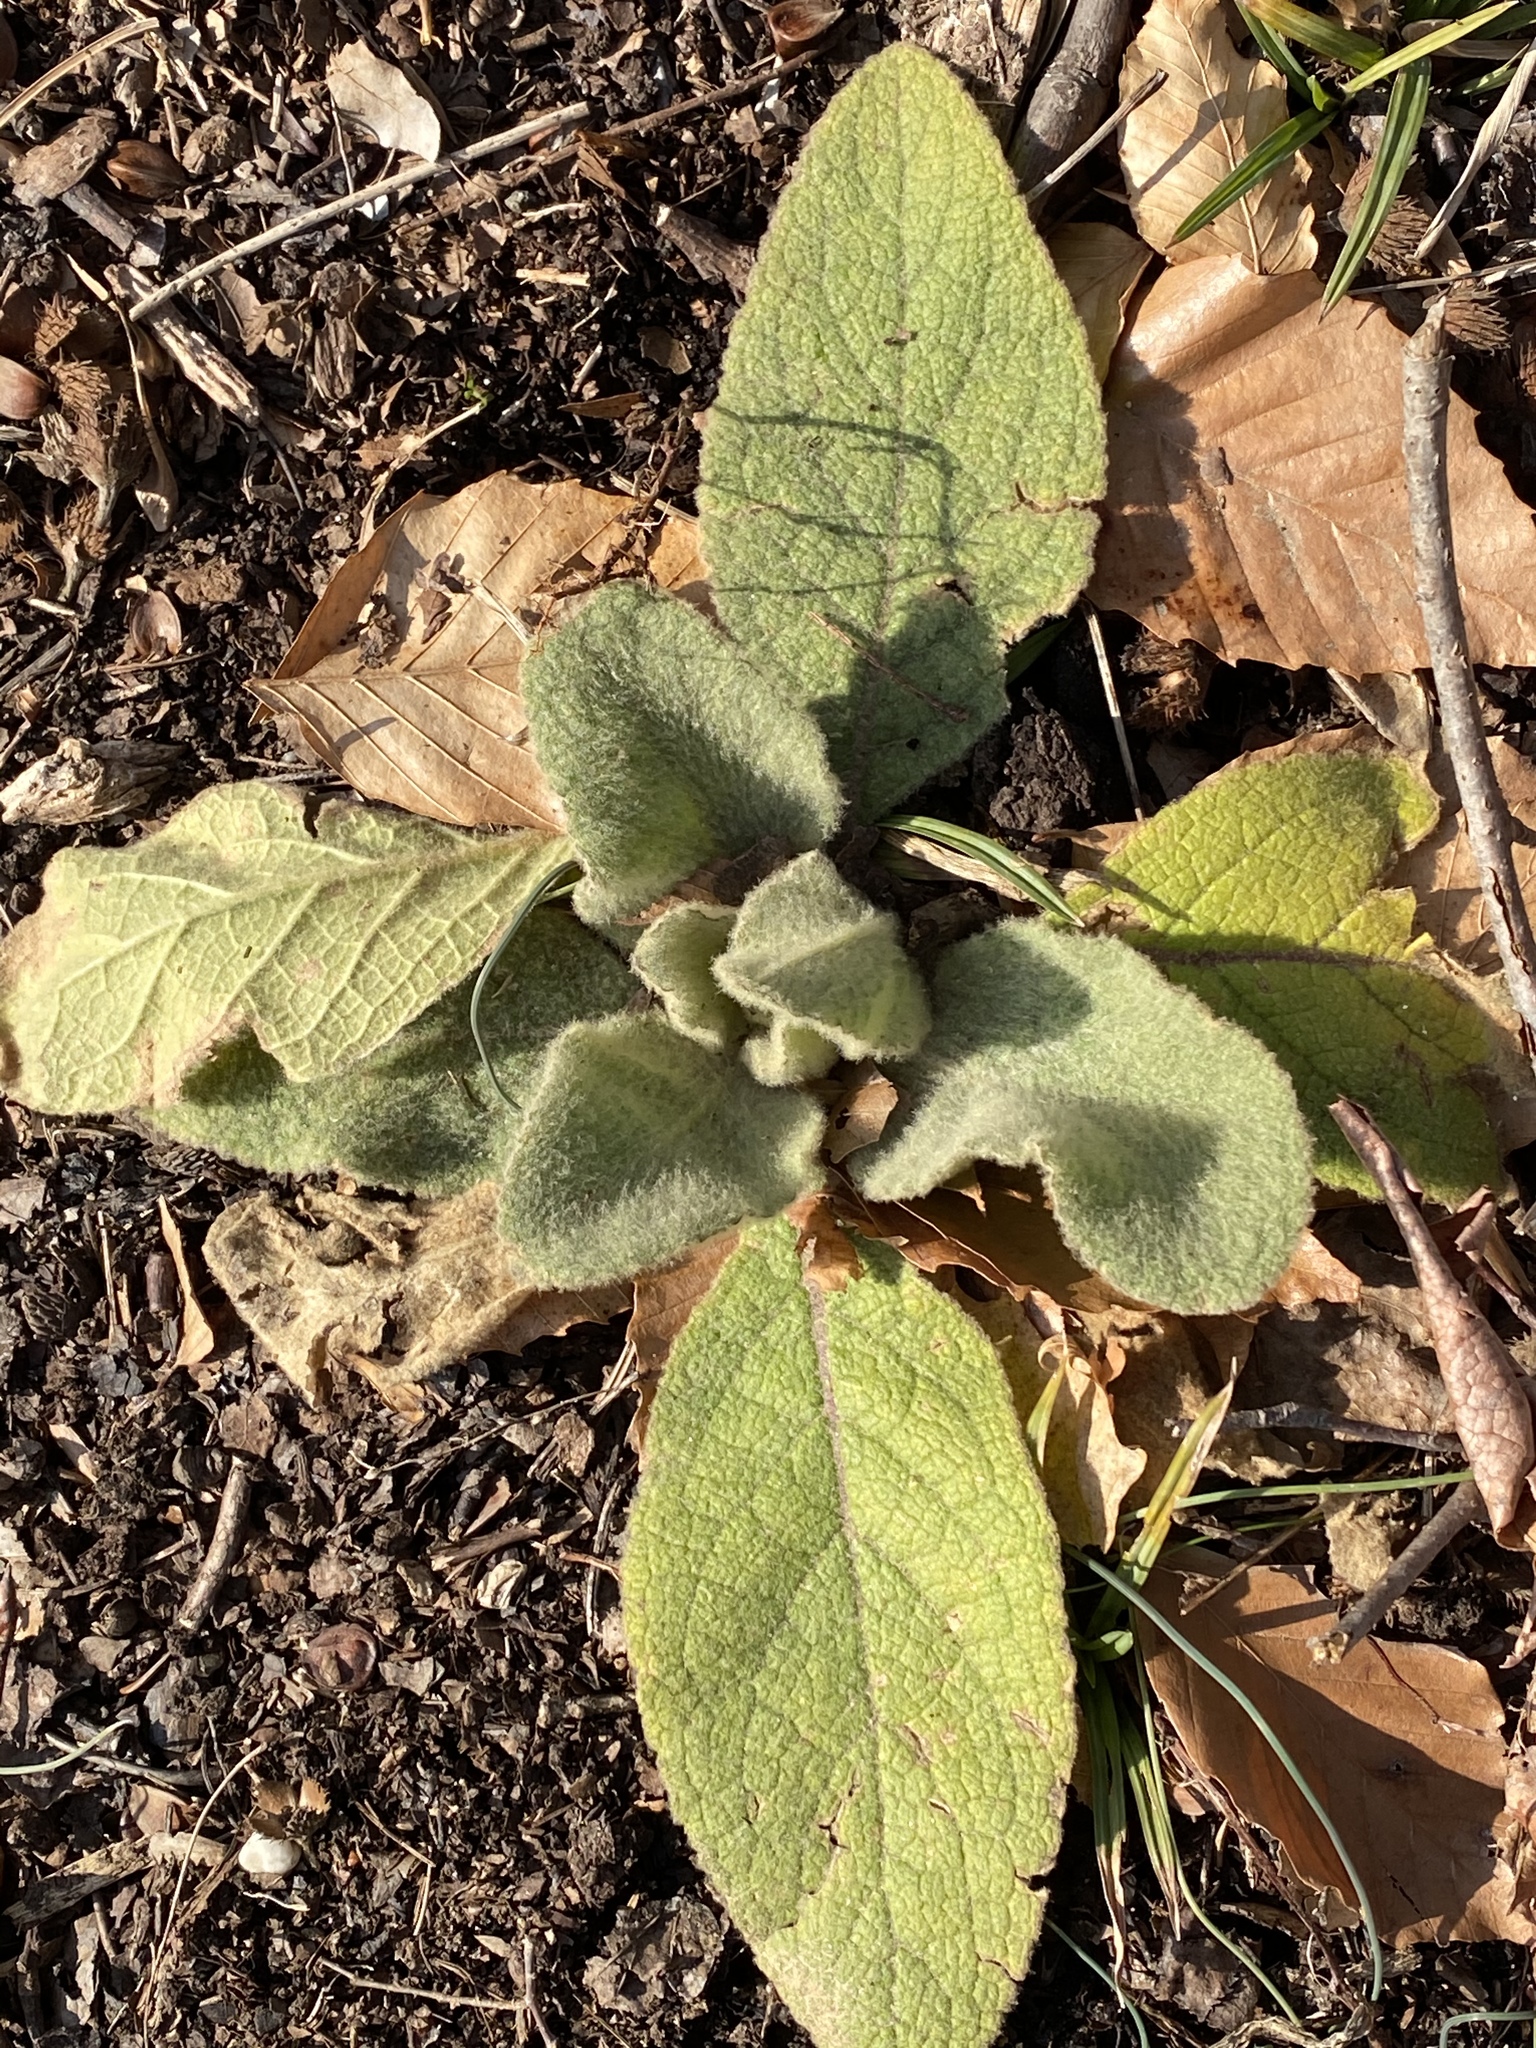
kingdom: Plantae
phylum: Tracheophyta
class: Magnoliopsida
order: Lamiales
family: Scrophulariaceae
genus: Verbascum
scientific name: Verbascum thapsus
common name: Common mullein
